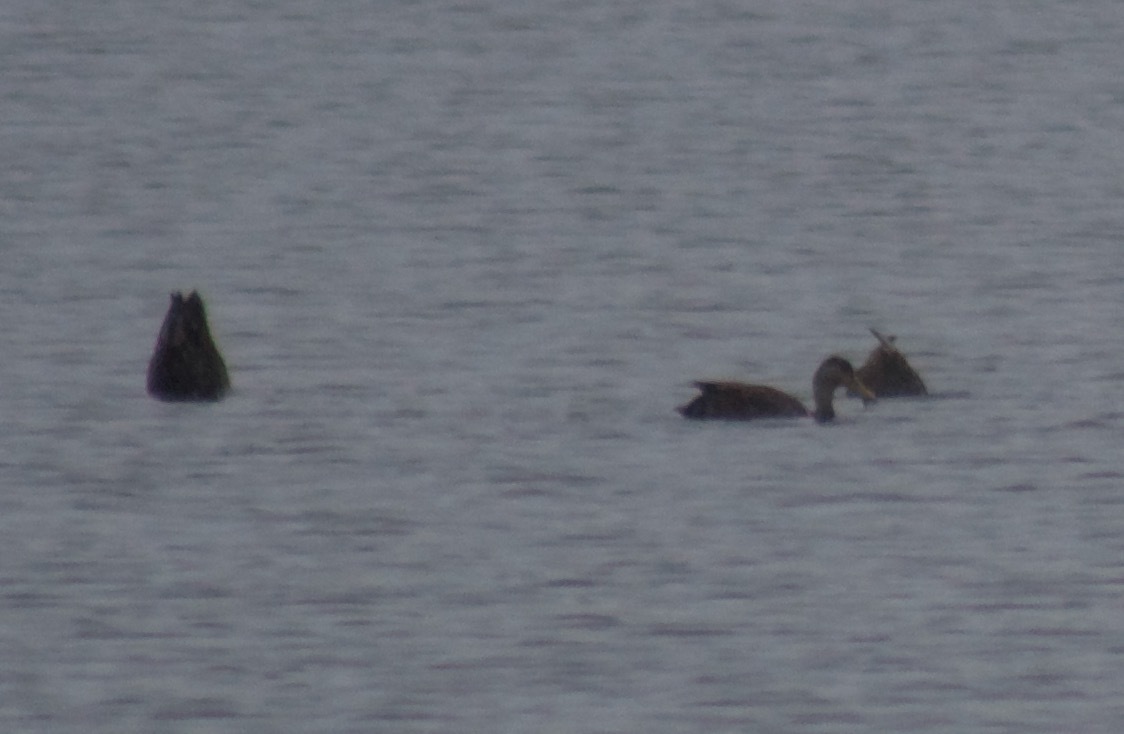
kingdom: Animalia
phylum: Chordata
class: Aves
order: Anseriformes
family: Anatidae
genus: Anas
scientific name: Anas rubripes
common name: American black duck
